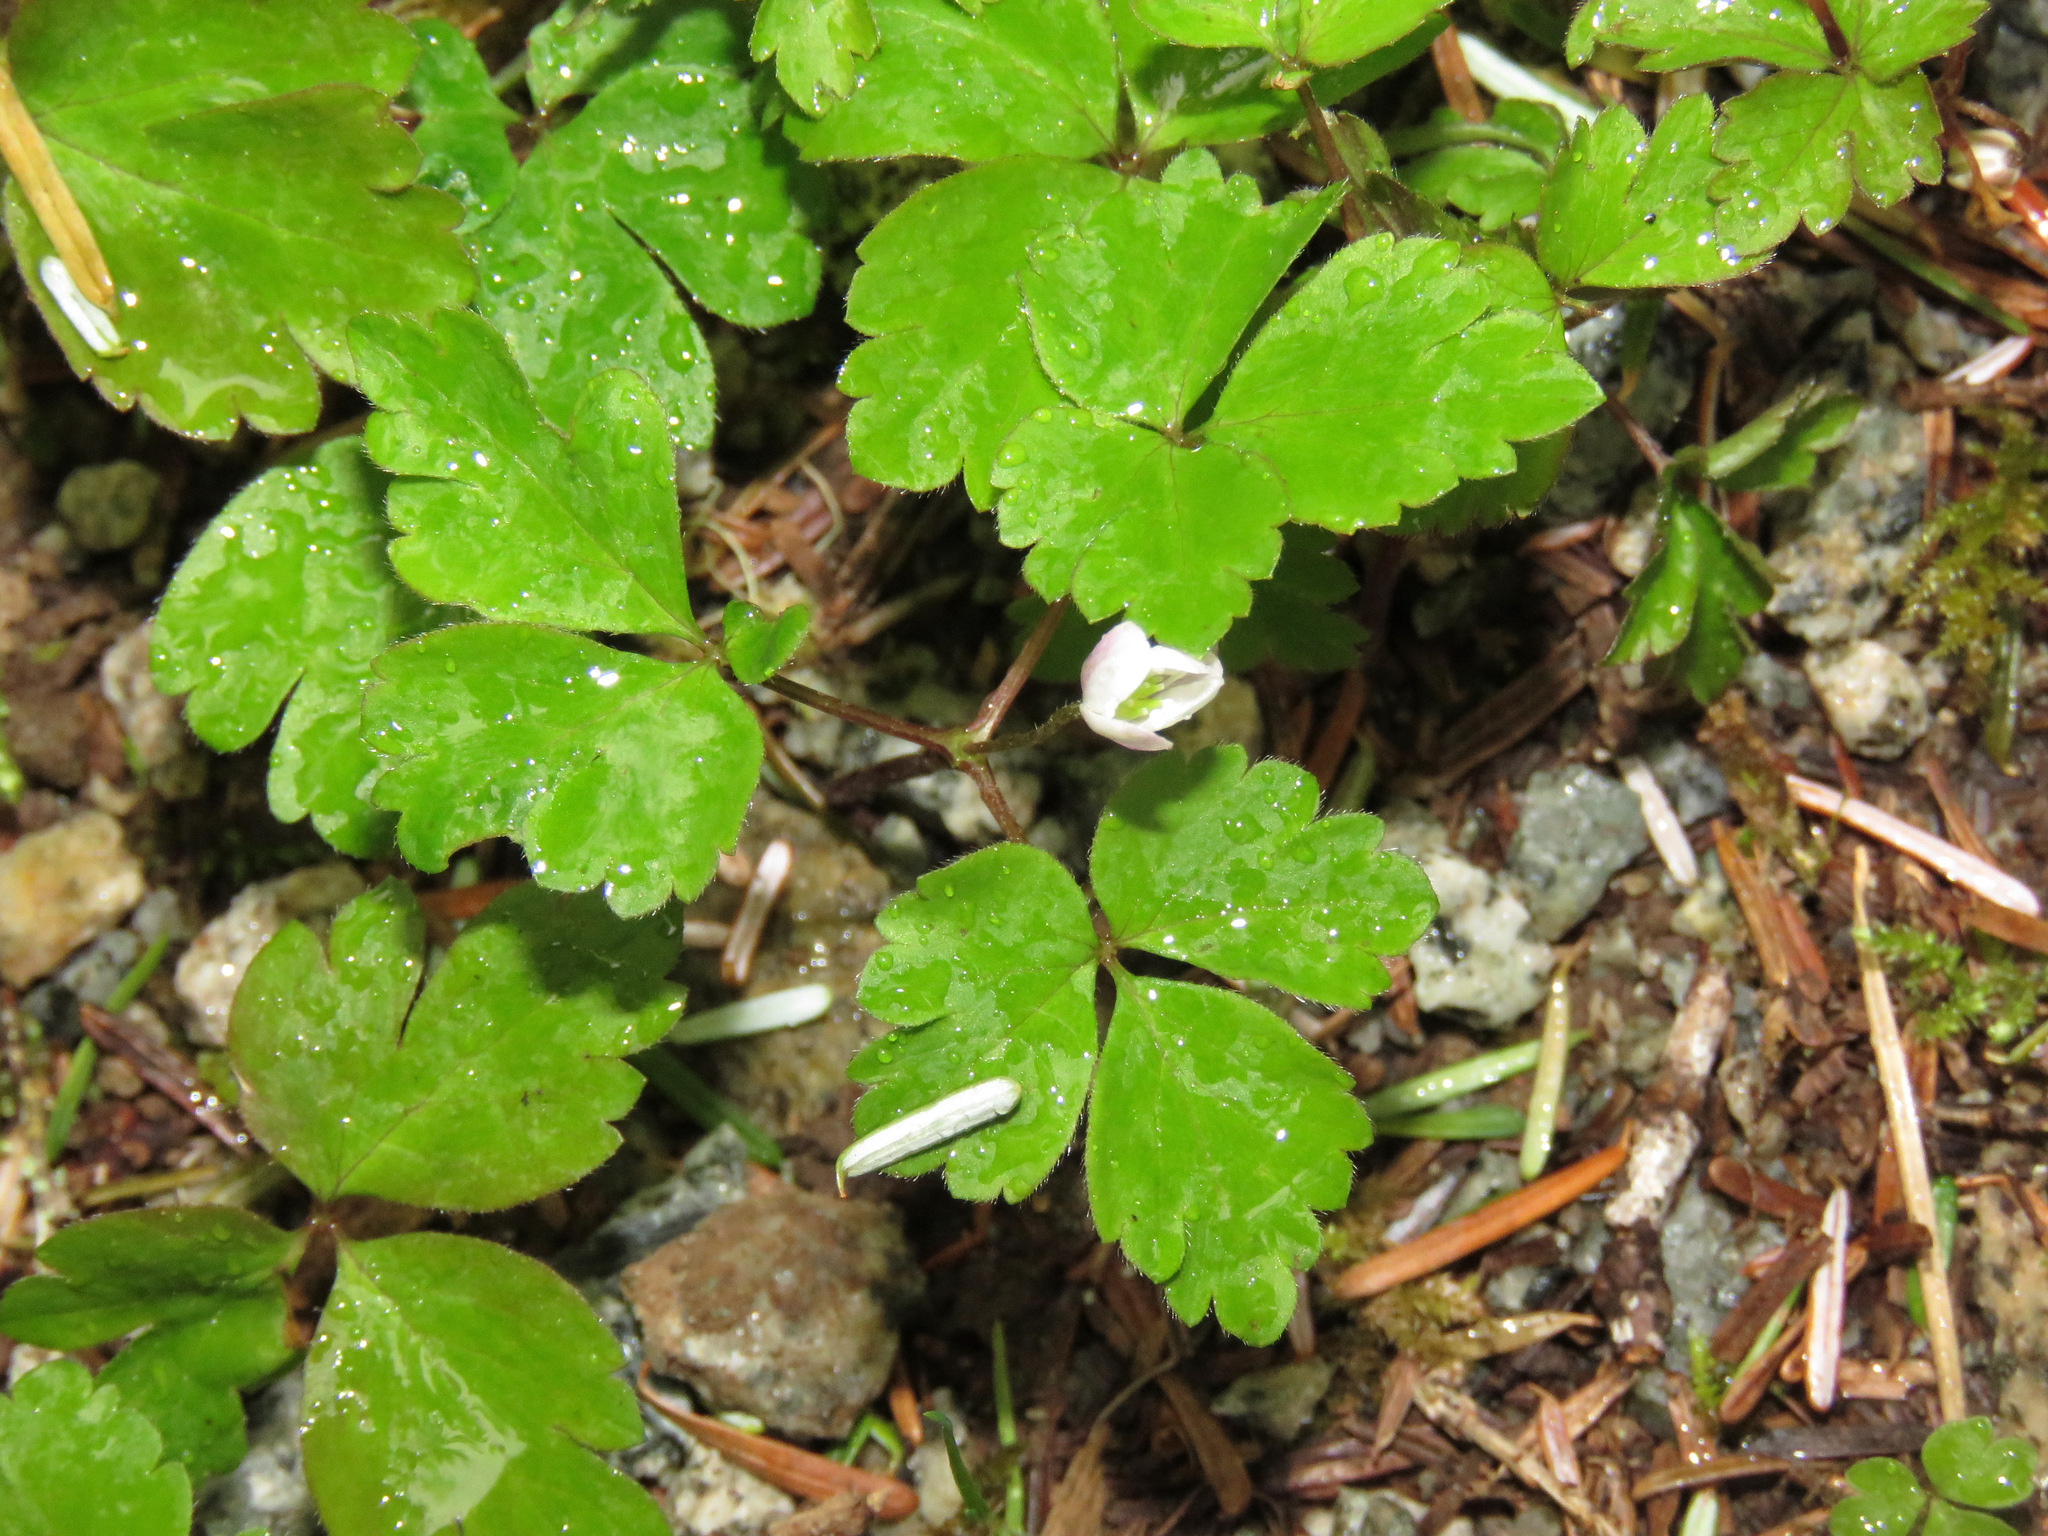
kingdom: Plantae
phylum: Tracheophyta
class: Magnoliopsida
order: Ranunculales
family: Ranunculaceae
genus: Anemone
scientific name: Anemone
